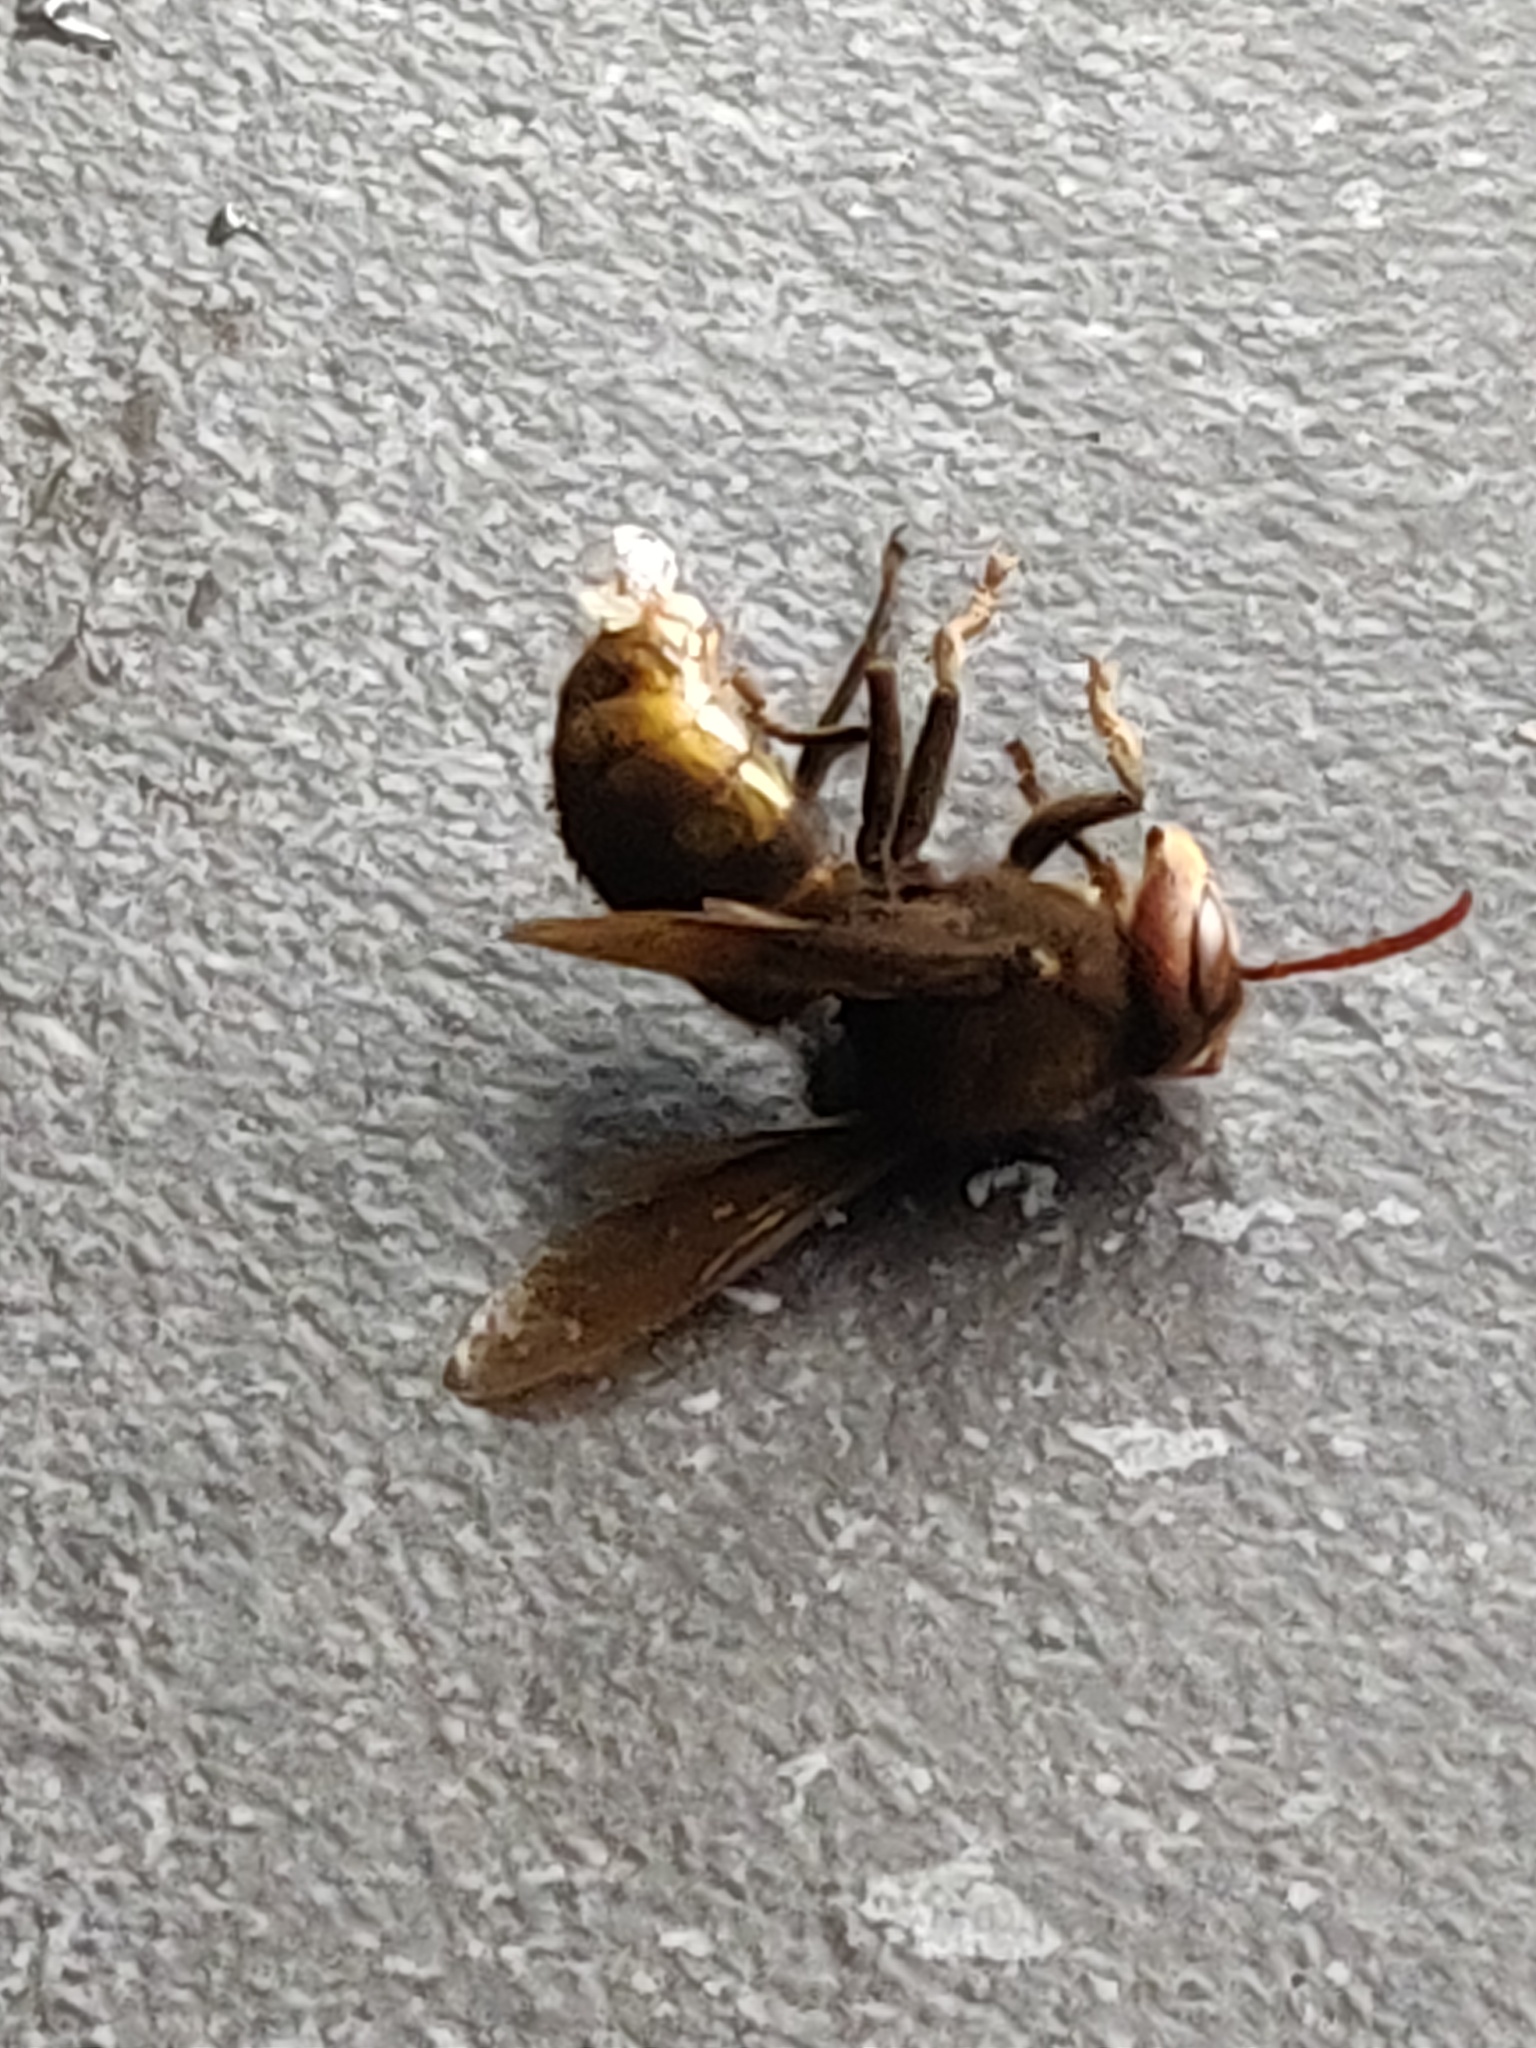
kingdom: Animalia
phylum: Arthropoda
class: Insecta
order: Hymenoptera
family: Vespidae
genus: Vespa
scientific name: Vespa crabro
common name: Hornet
